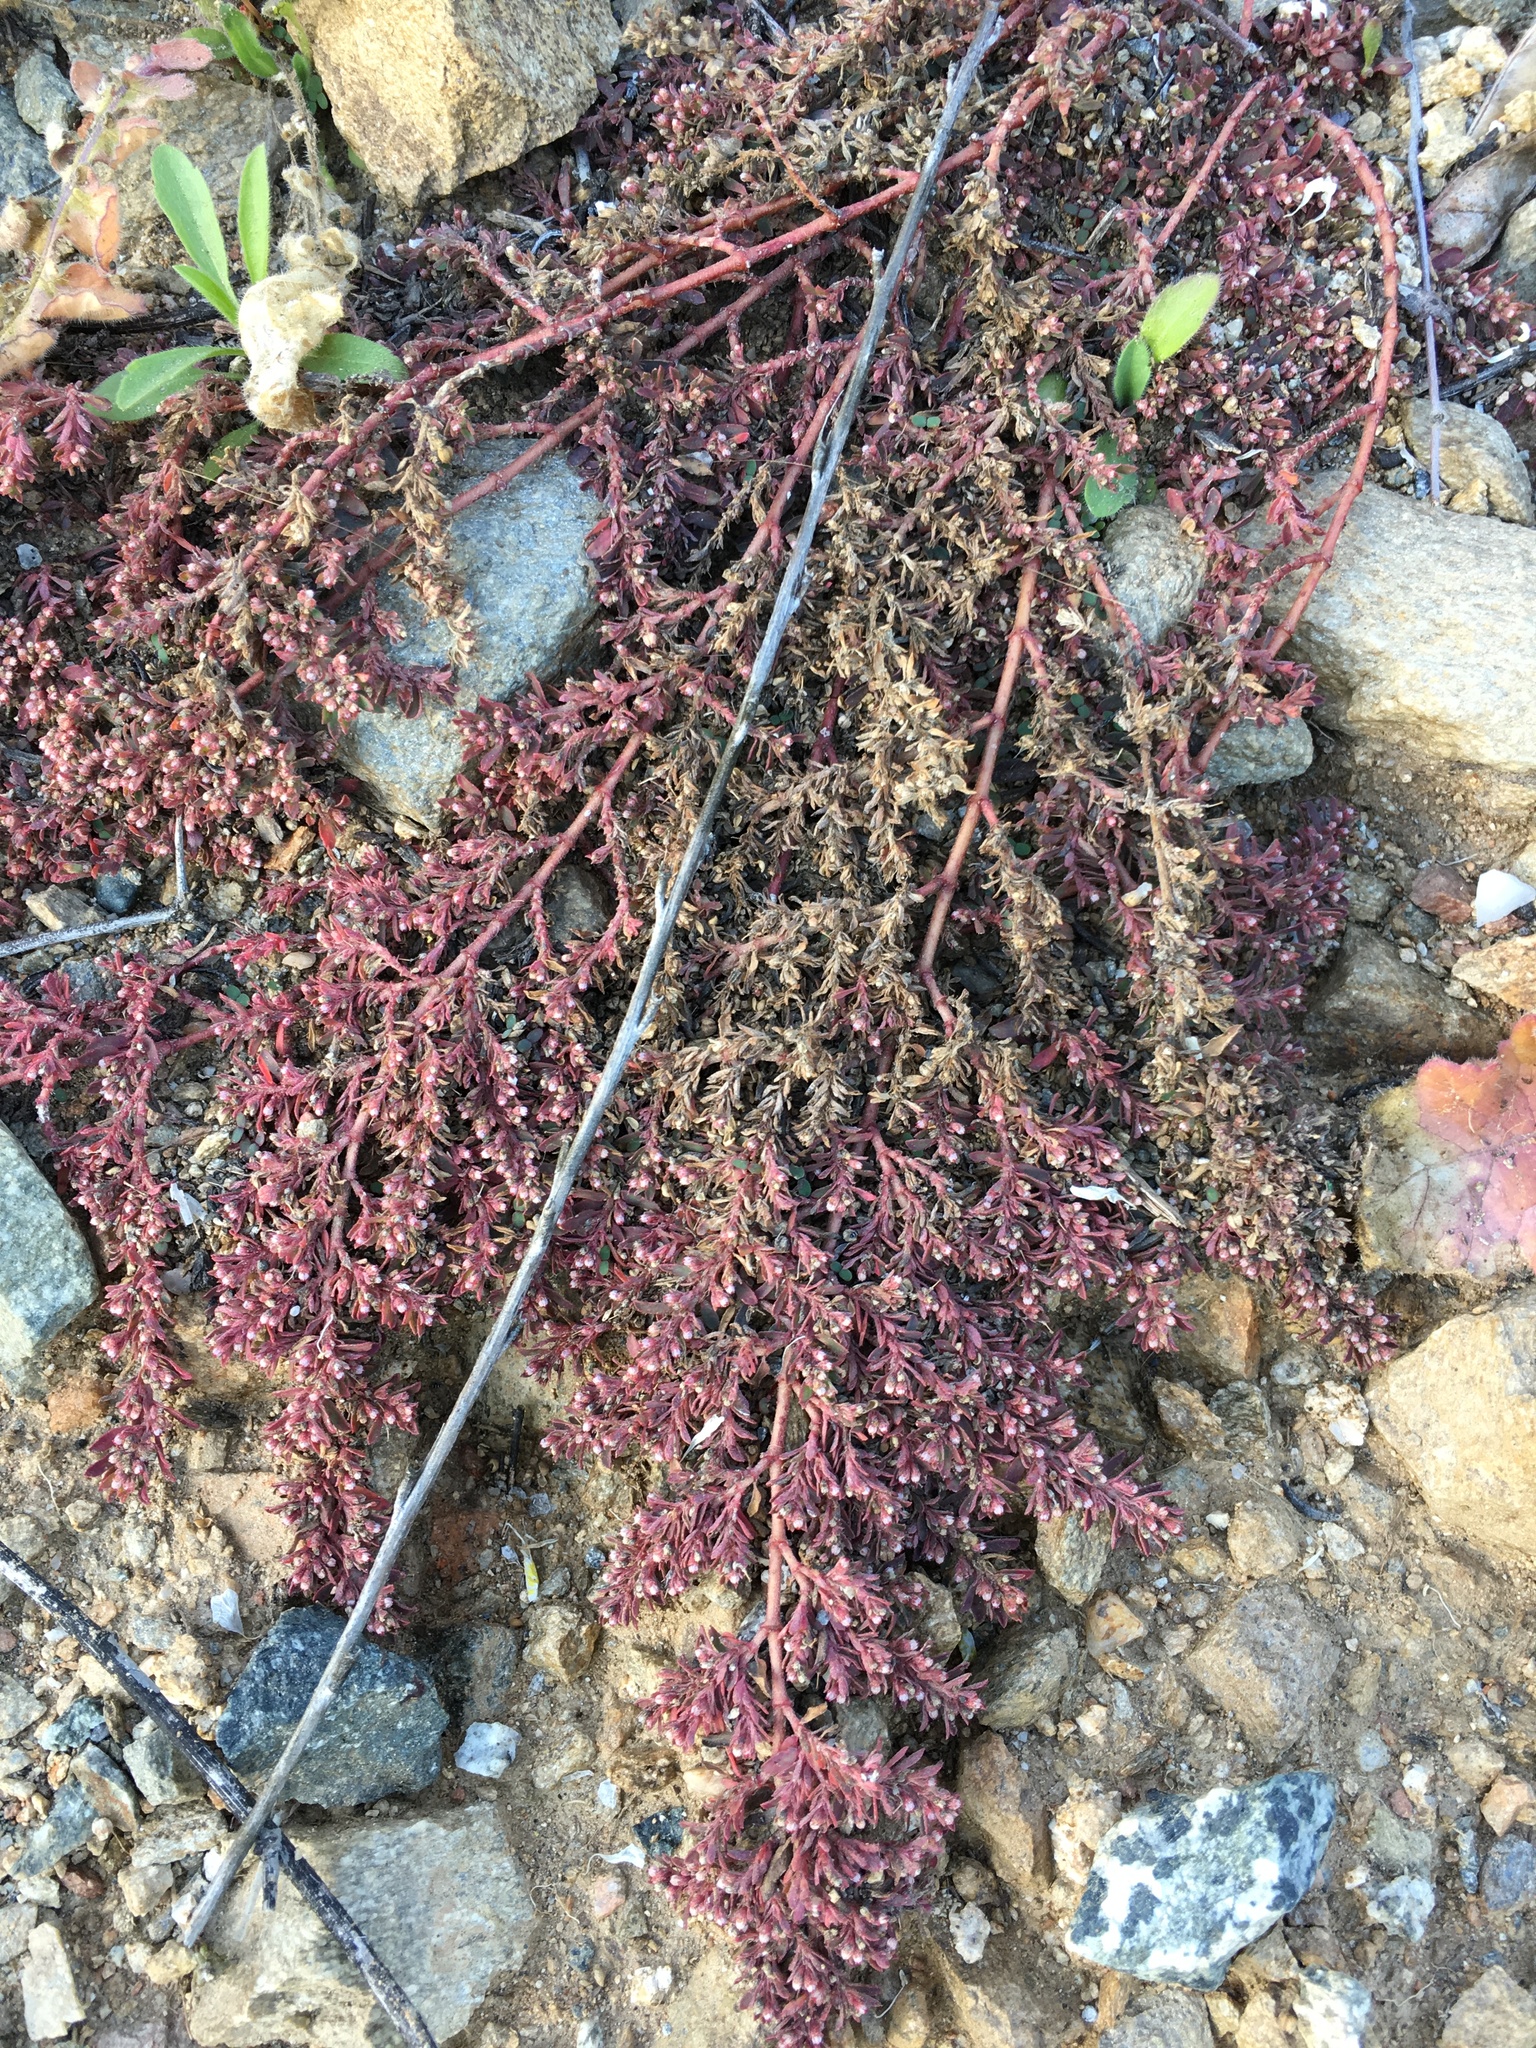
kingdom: Plantae
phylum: Tracheophyta
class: Magnoliopsida
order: Malpighiales
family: Euphorbiaceae
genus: Euphorbia
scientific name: Euphorbia maculata
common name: Spotted spurge
